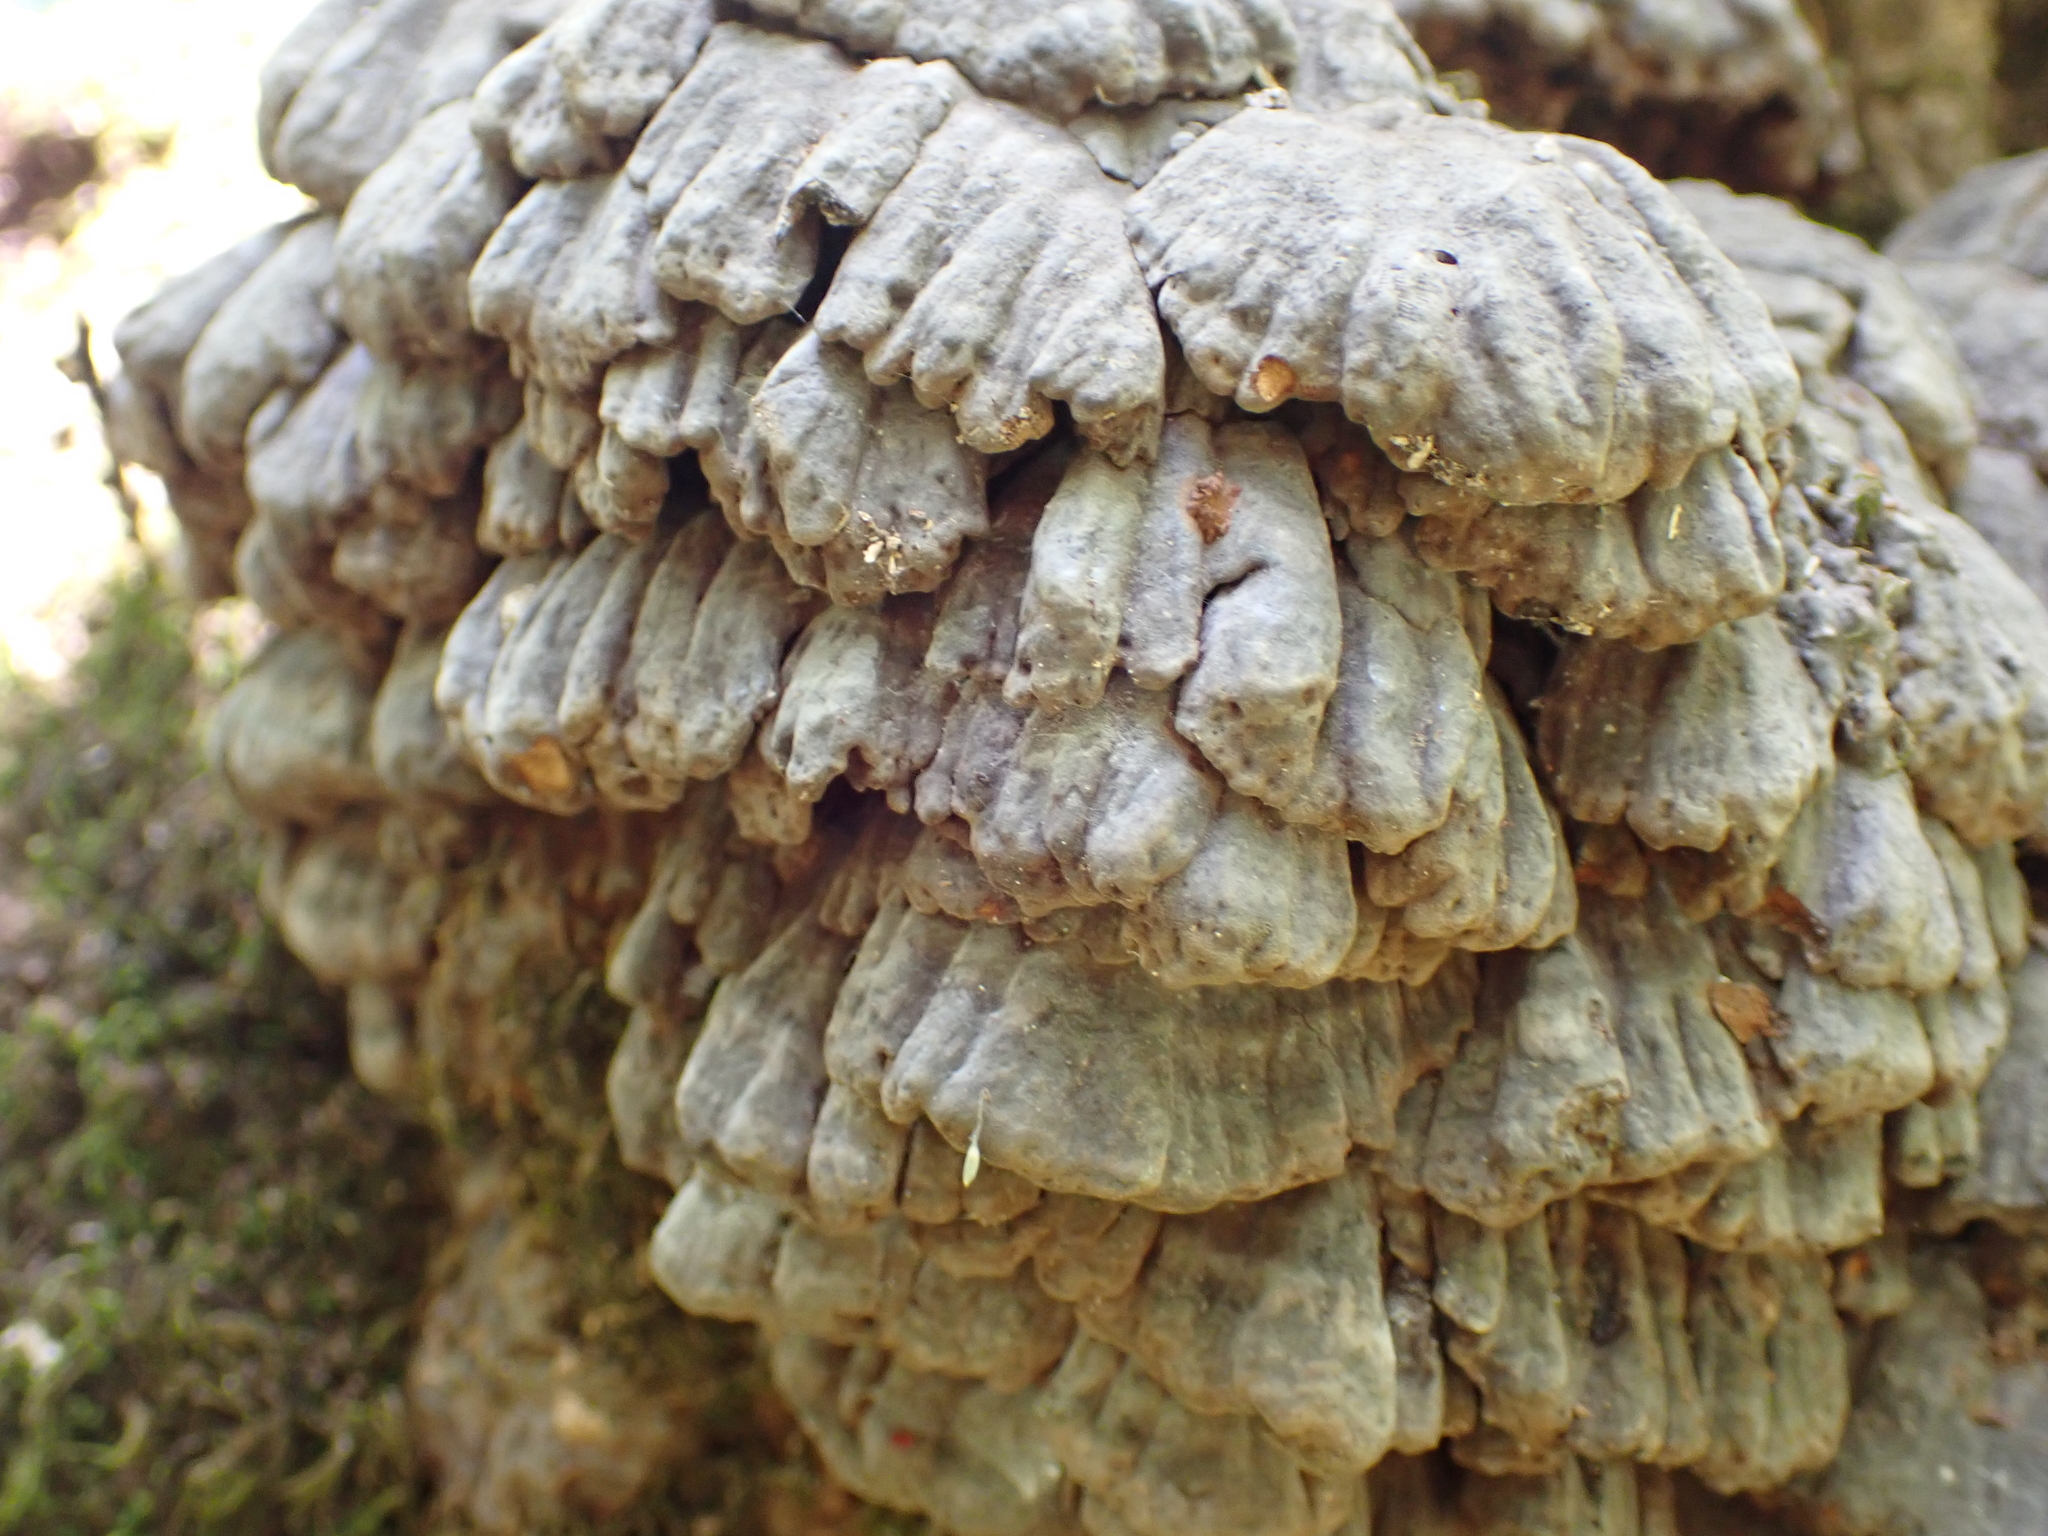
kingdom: Fungi
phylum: Basidiomycota
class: Agaricomycetes
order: Polyporales
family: Polyporaceae
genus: Globifomes
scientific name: Globifomes graveolens
